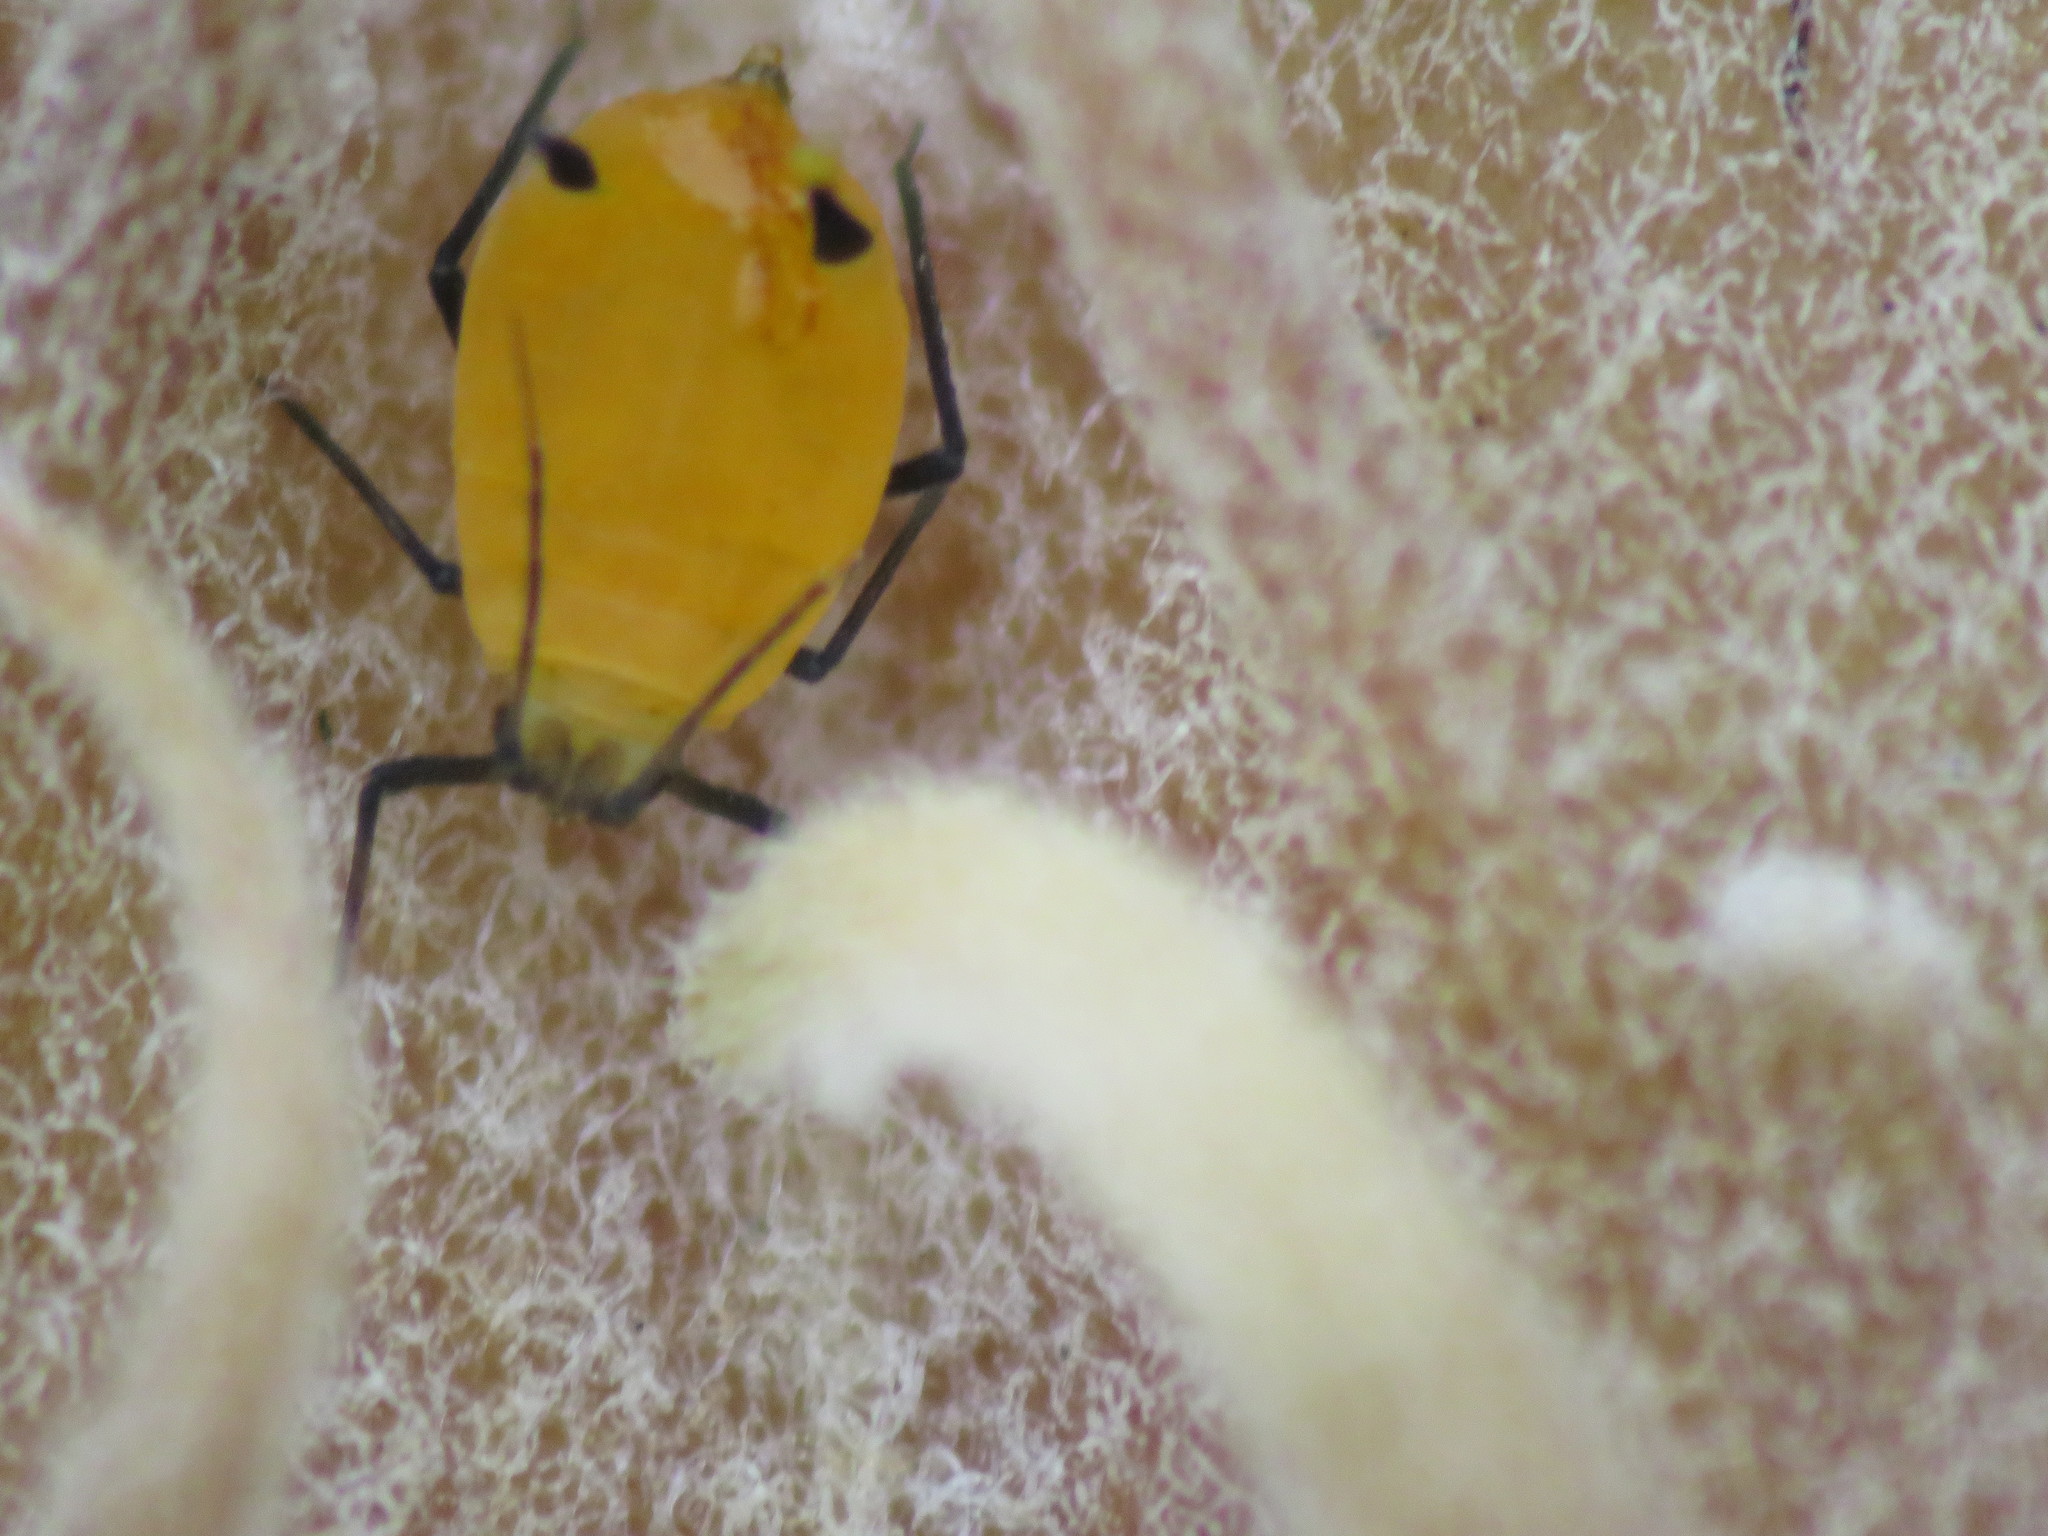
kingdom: Animalia
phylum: Arthropoda
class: Insecta
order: Hemiptera
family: Aphididae
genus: Aphis
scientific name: Aphis nerii
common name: Oleander aphid
